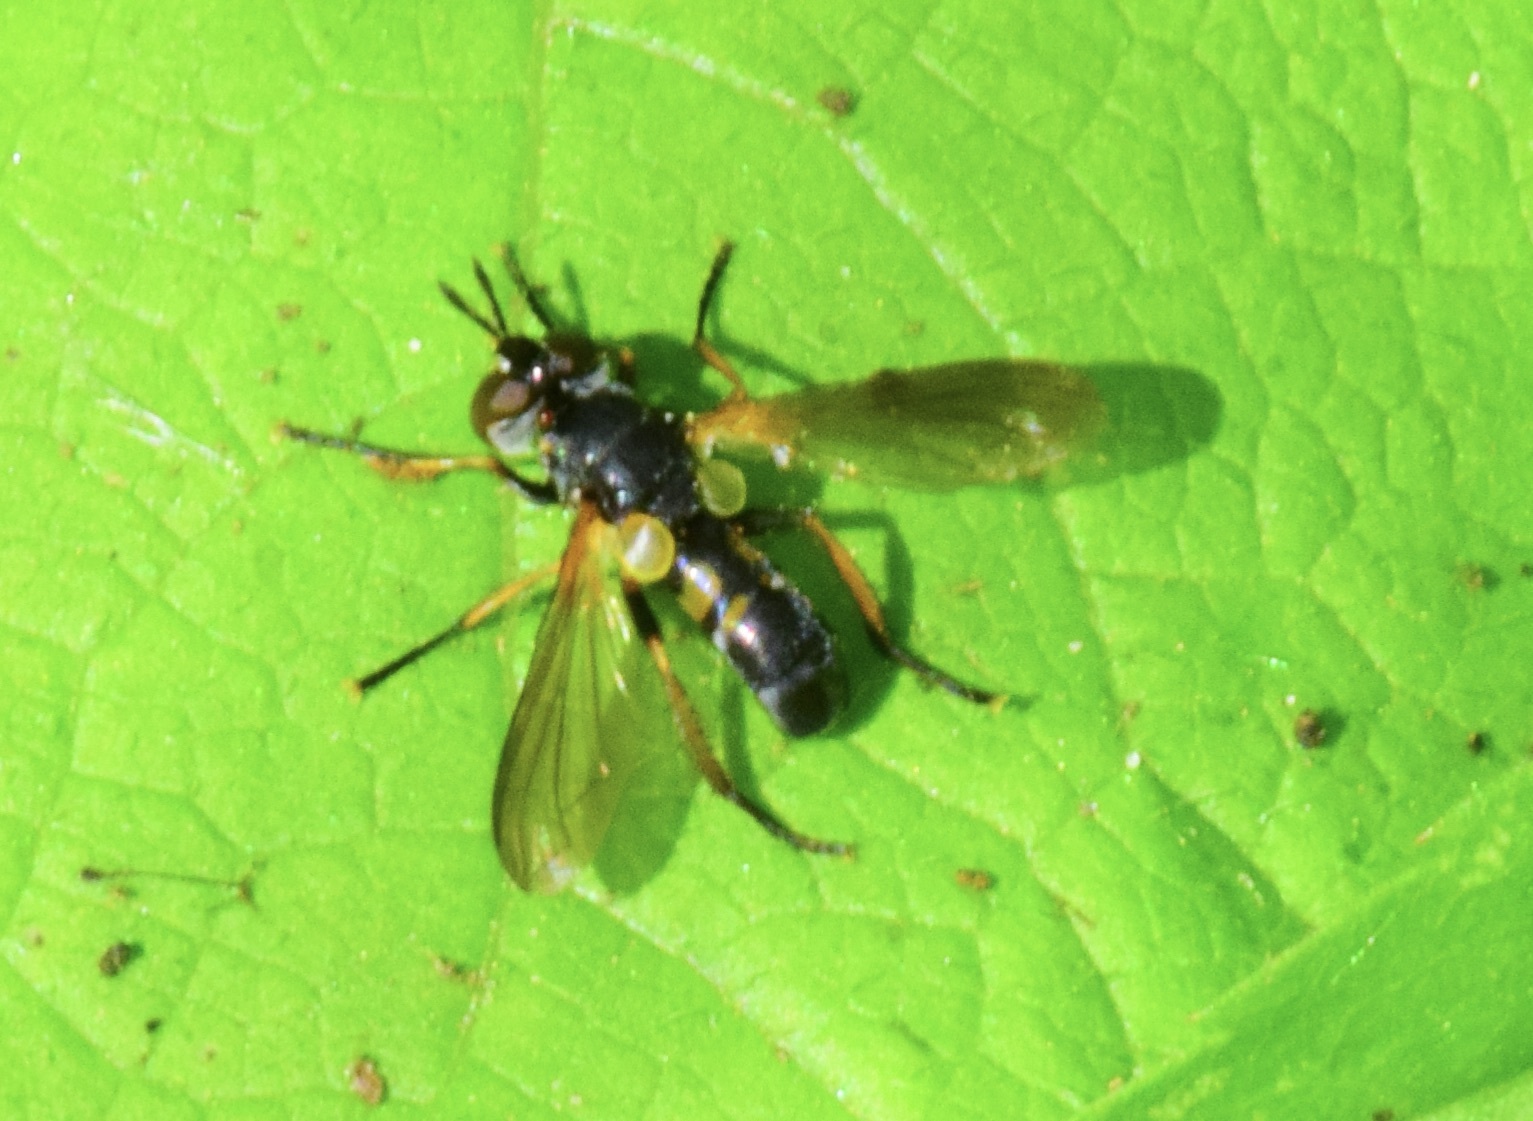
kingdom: Animalia
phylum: Arthropoda
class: Insecta
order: Diptera
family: Tachinidae
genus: Hemyda
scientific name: Hemyda aurata
